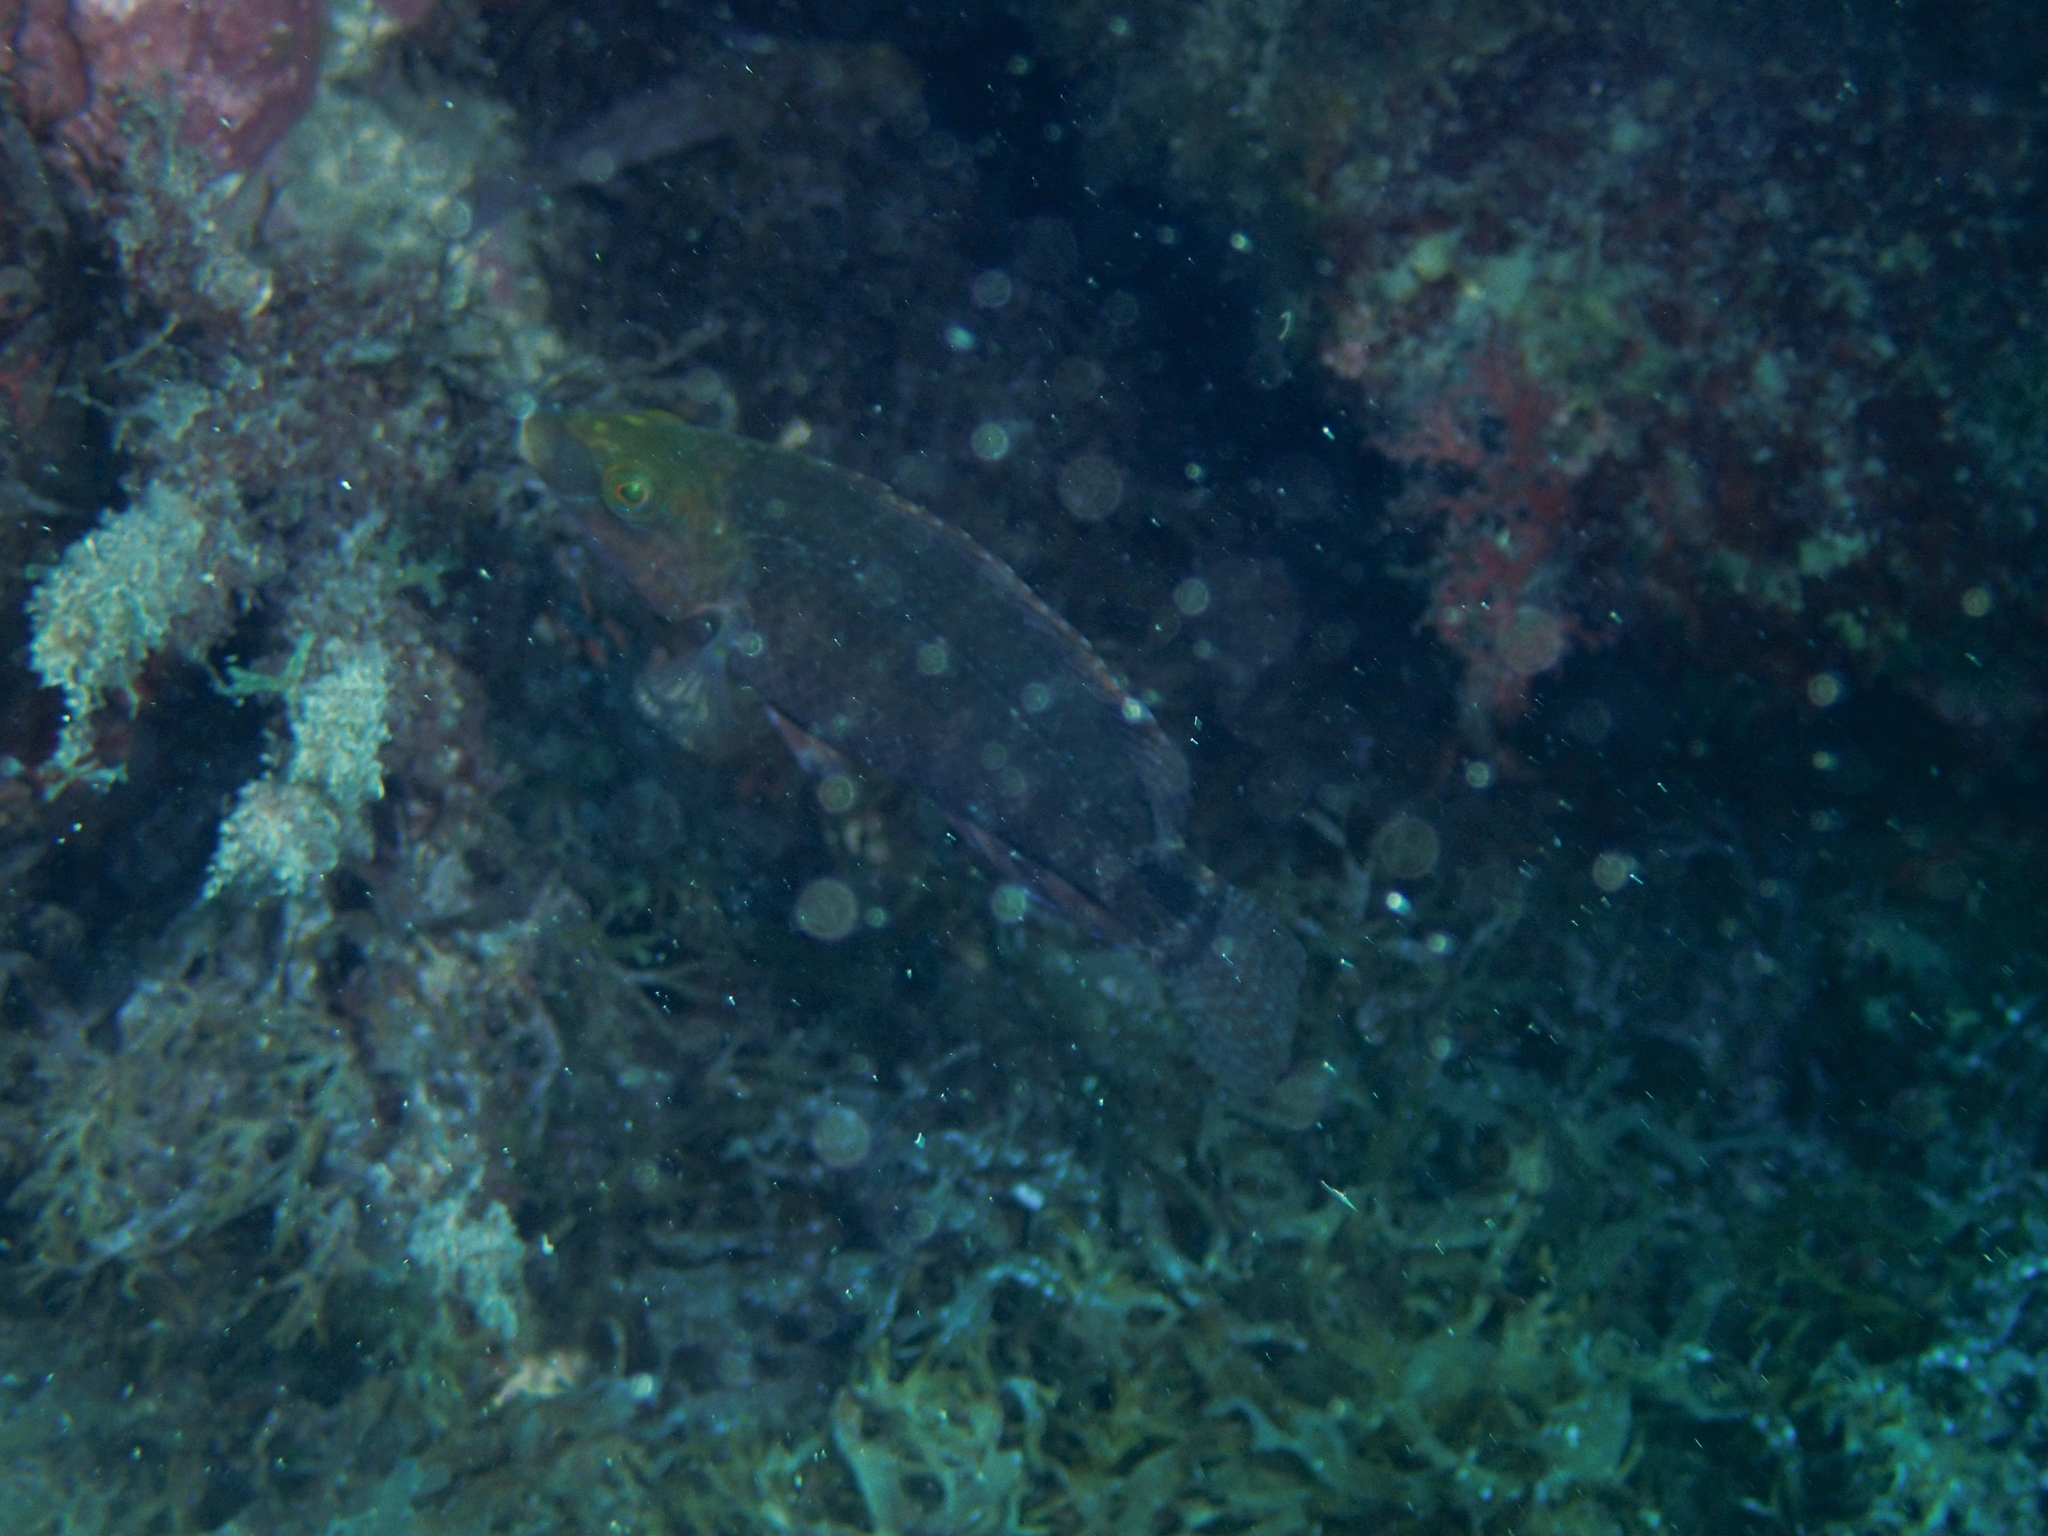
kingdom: Animalia
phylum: Chordata
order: Perciformes
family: Labridae
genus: Symphodus
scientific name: Symphodus mediterraneus
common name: Axillary wrasse
